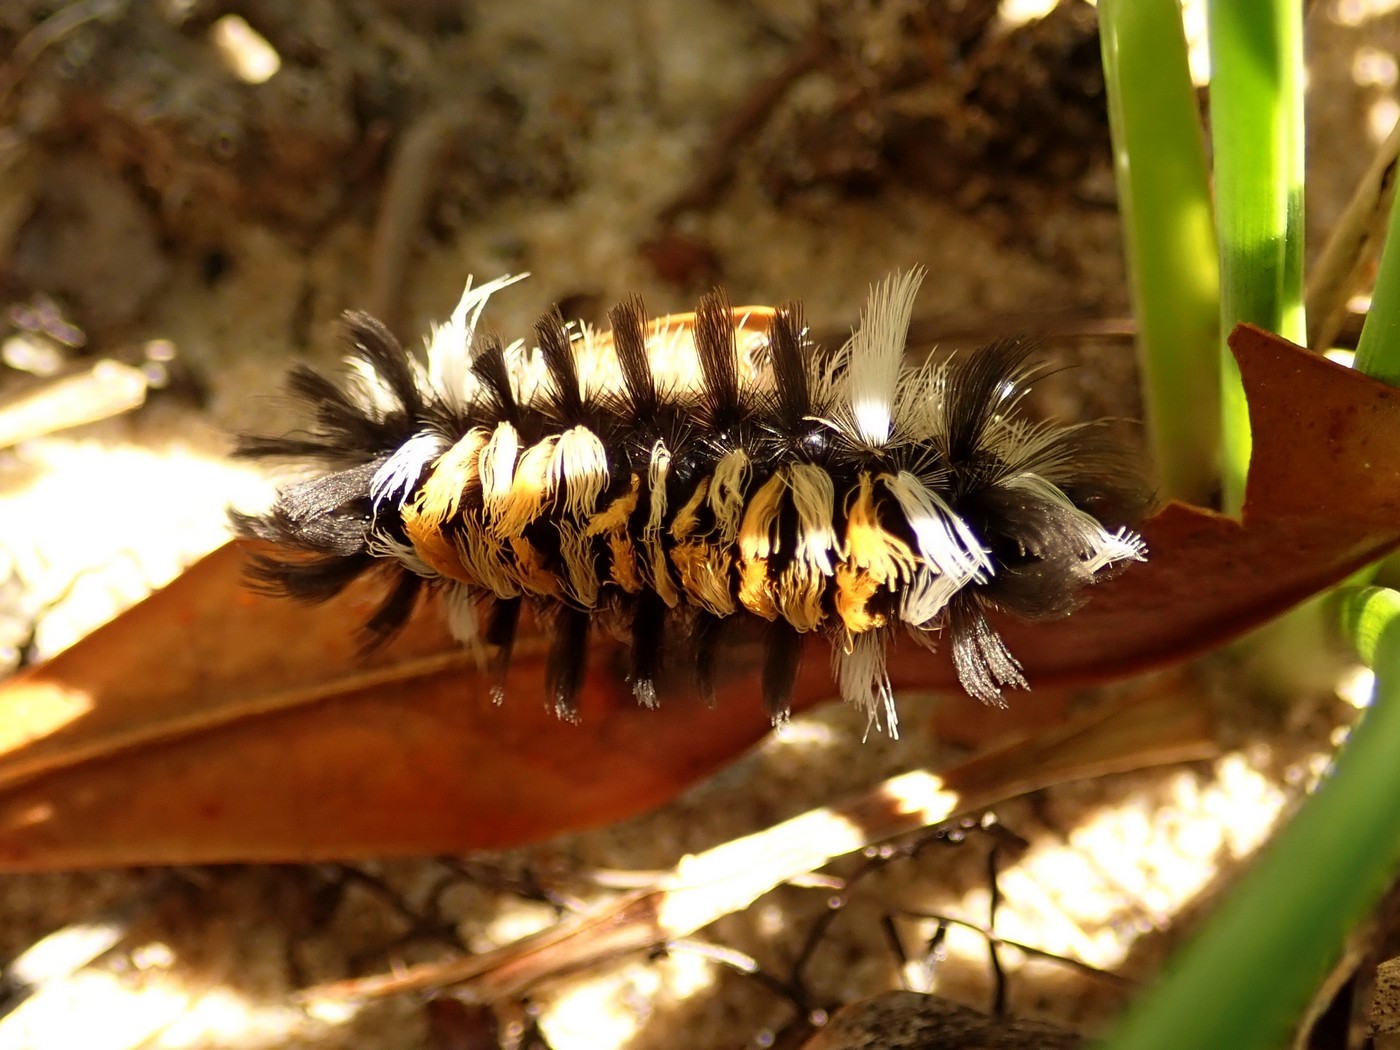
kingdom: Animalia
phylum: Arthropoda
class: Insecta
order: Lepidoptera
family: Erebidae
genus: Euchaetes
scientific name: Euchaetes egle
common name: Milkweed tussock moth
